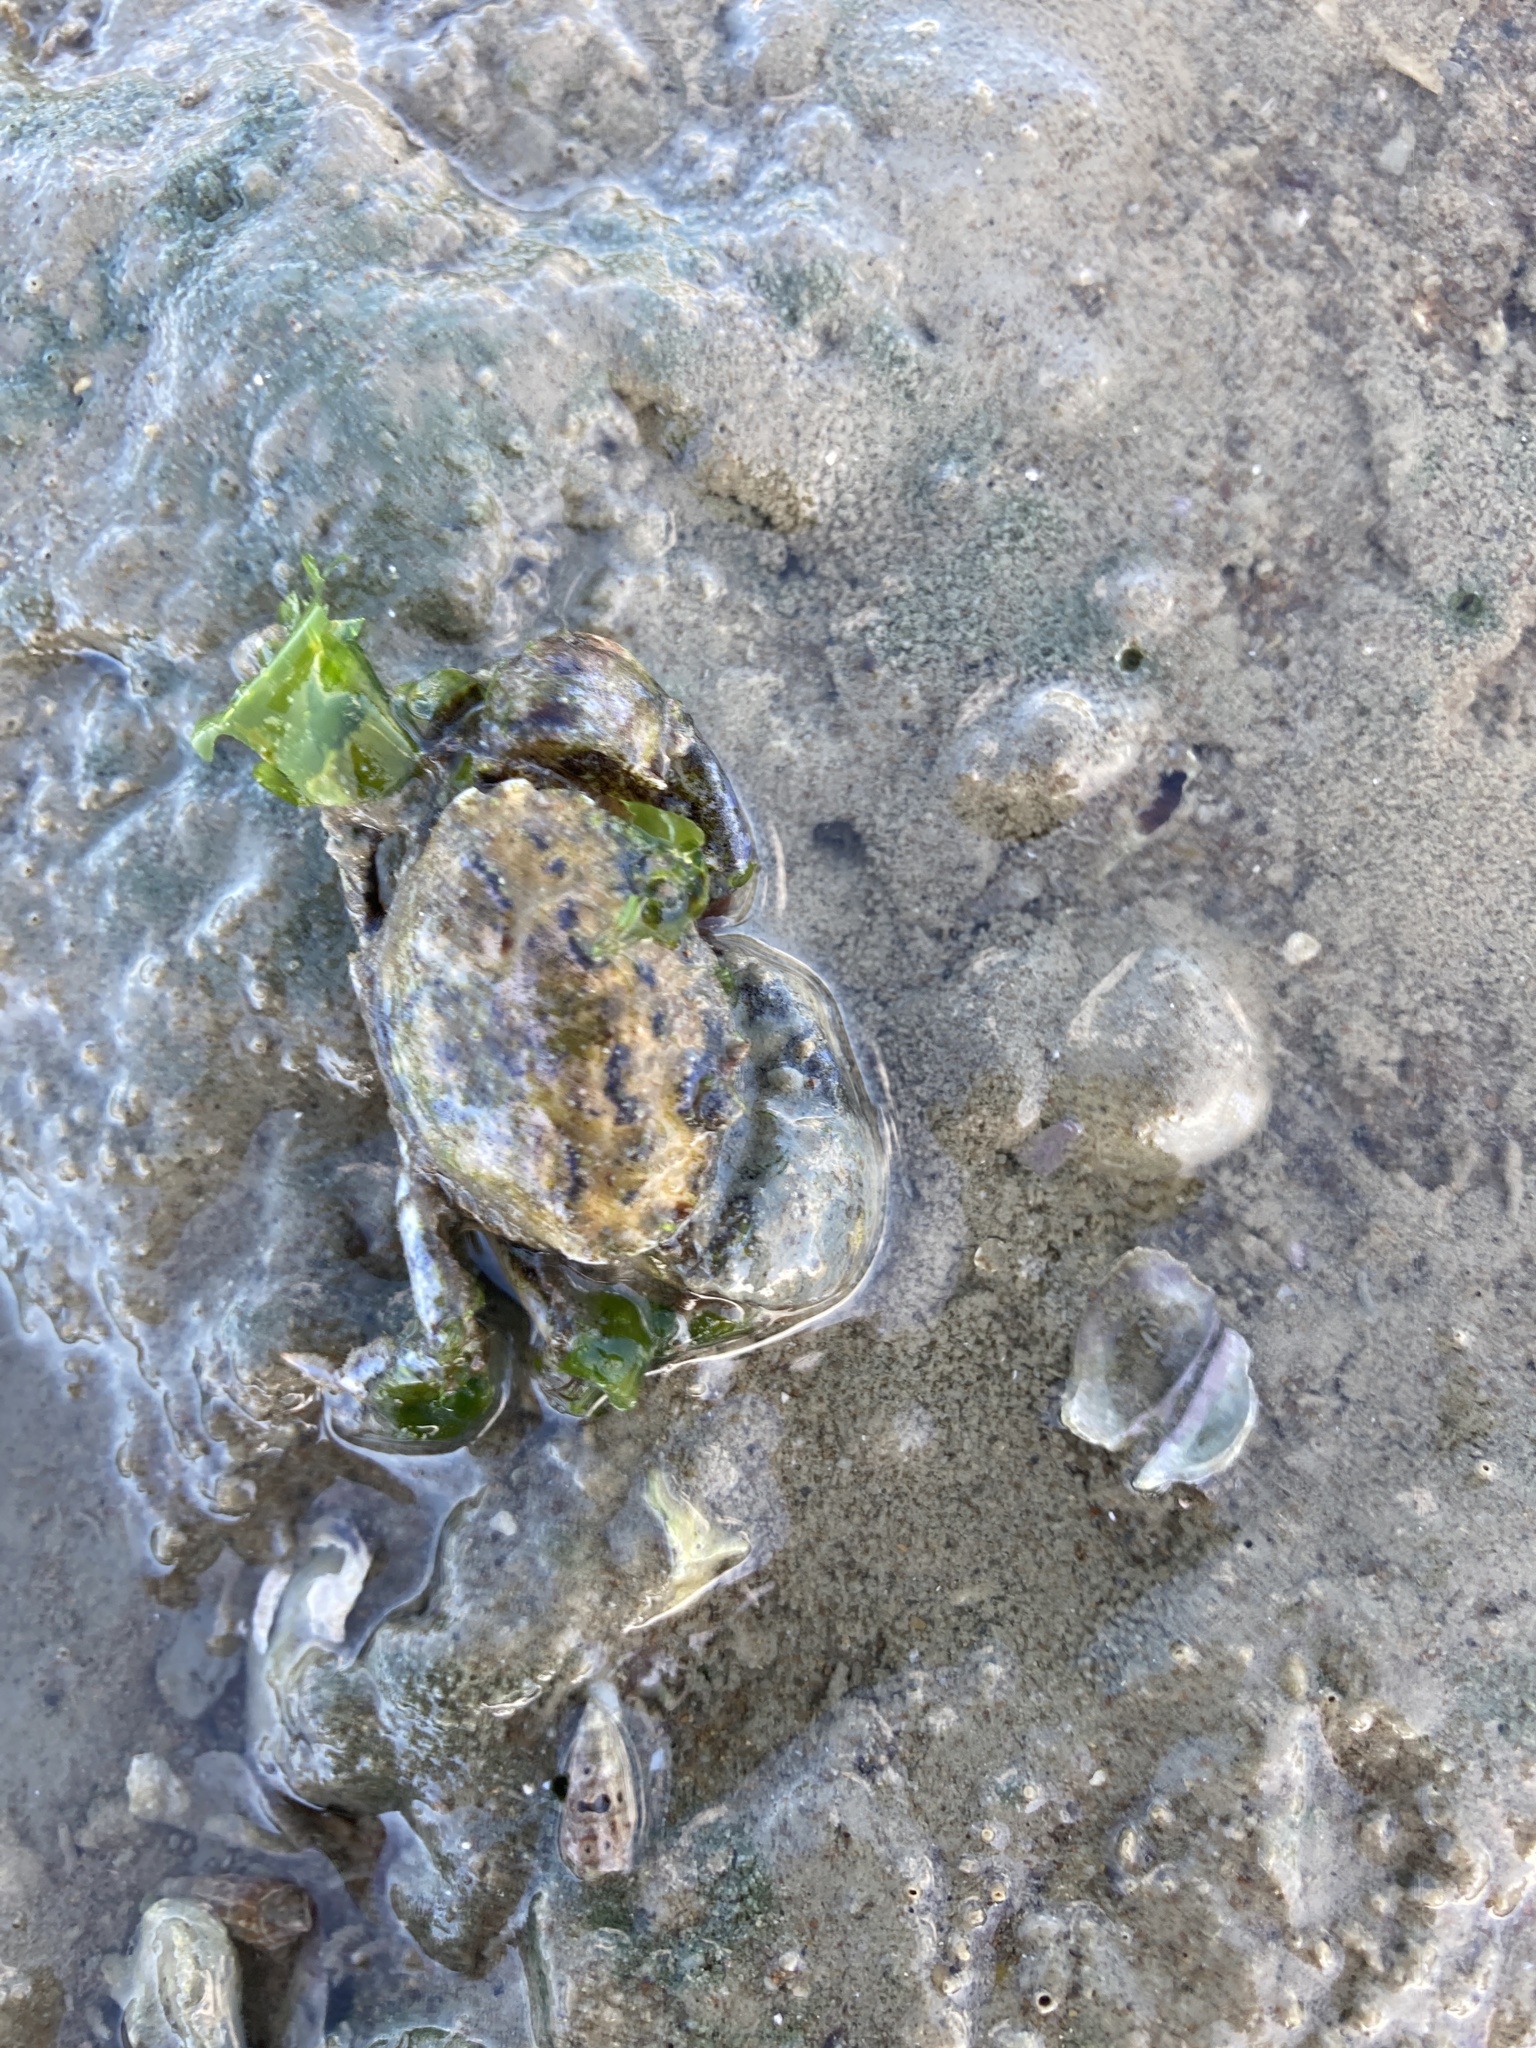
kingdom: Animalia
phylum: Arthropoda
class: Malacostraca
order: Decapoda
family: Pilumnidae
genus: Pilumnopeus
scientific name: Pilumnopeus serratifrons
